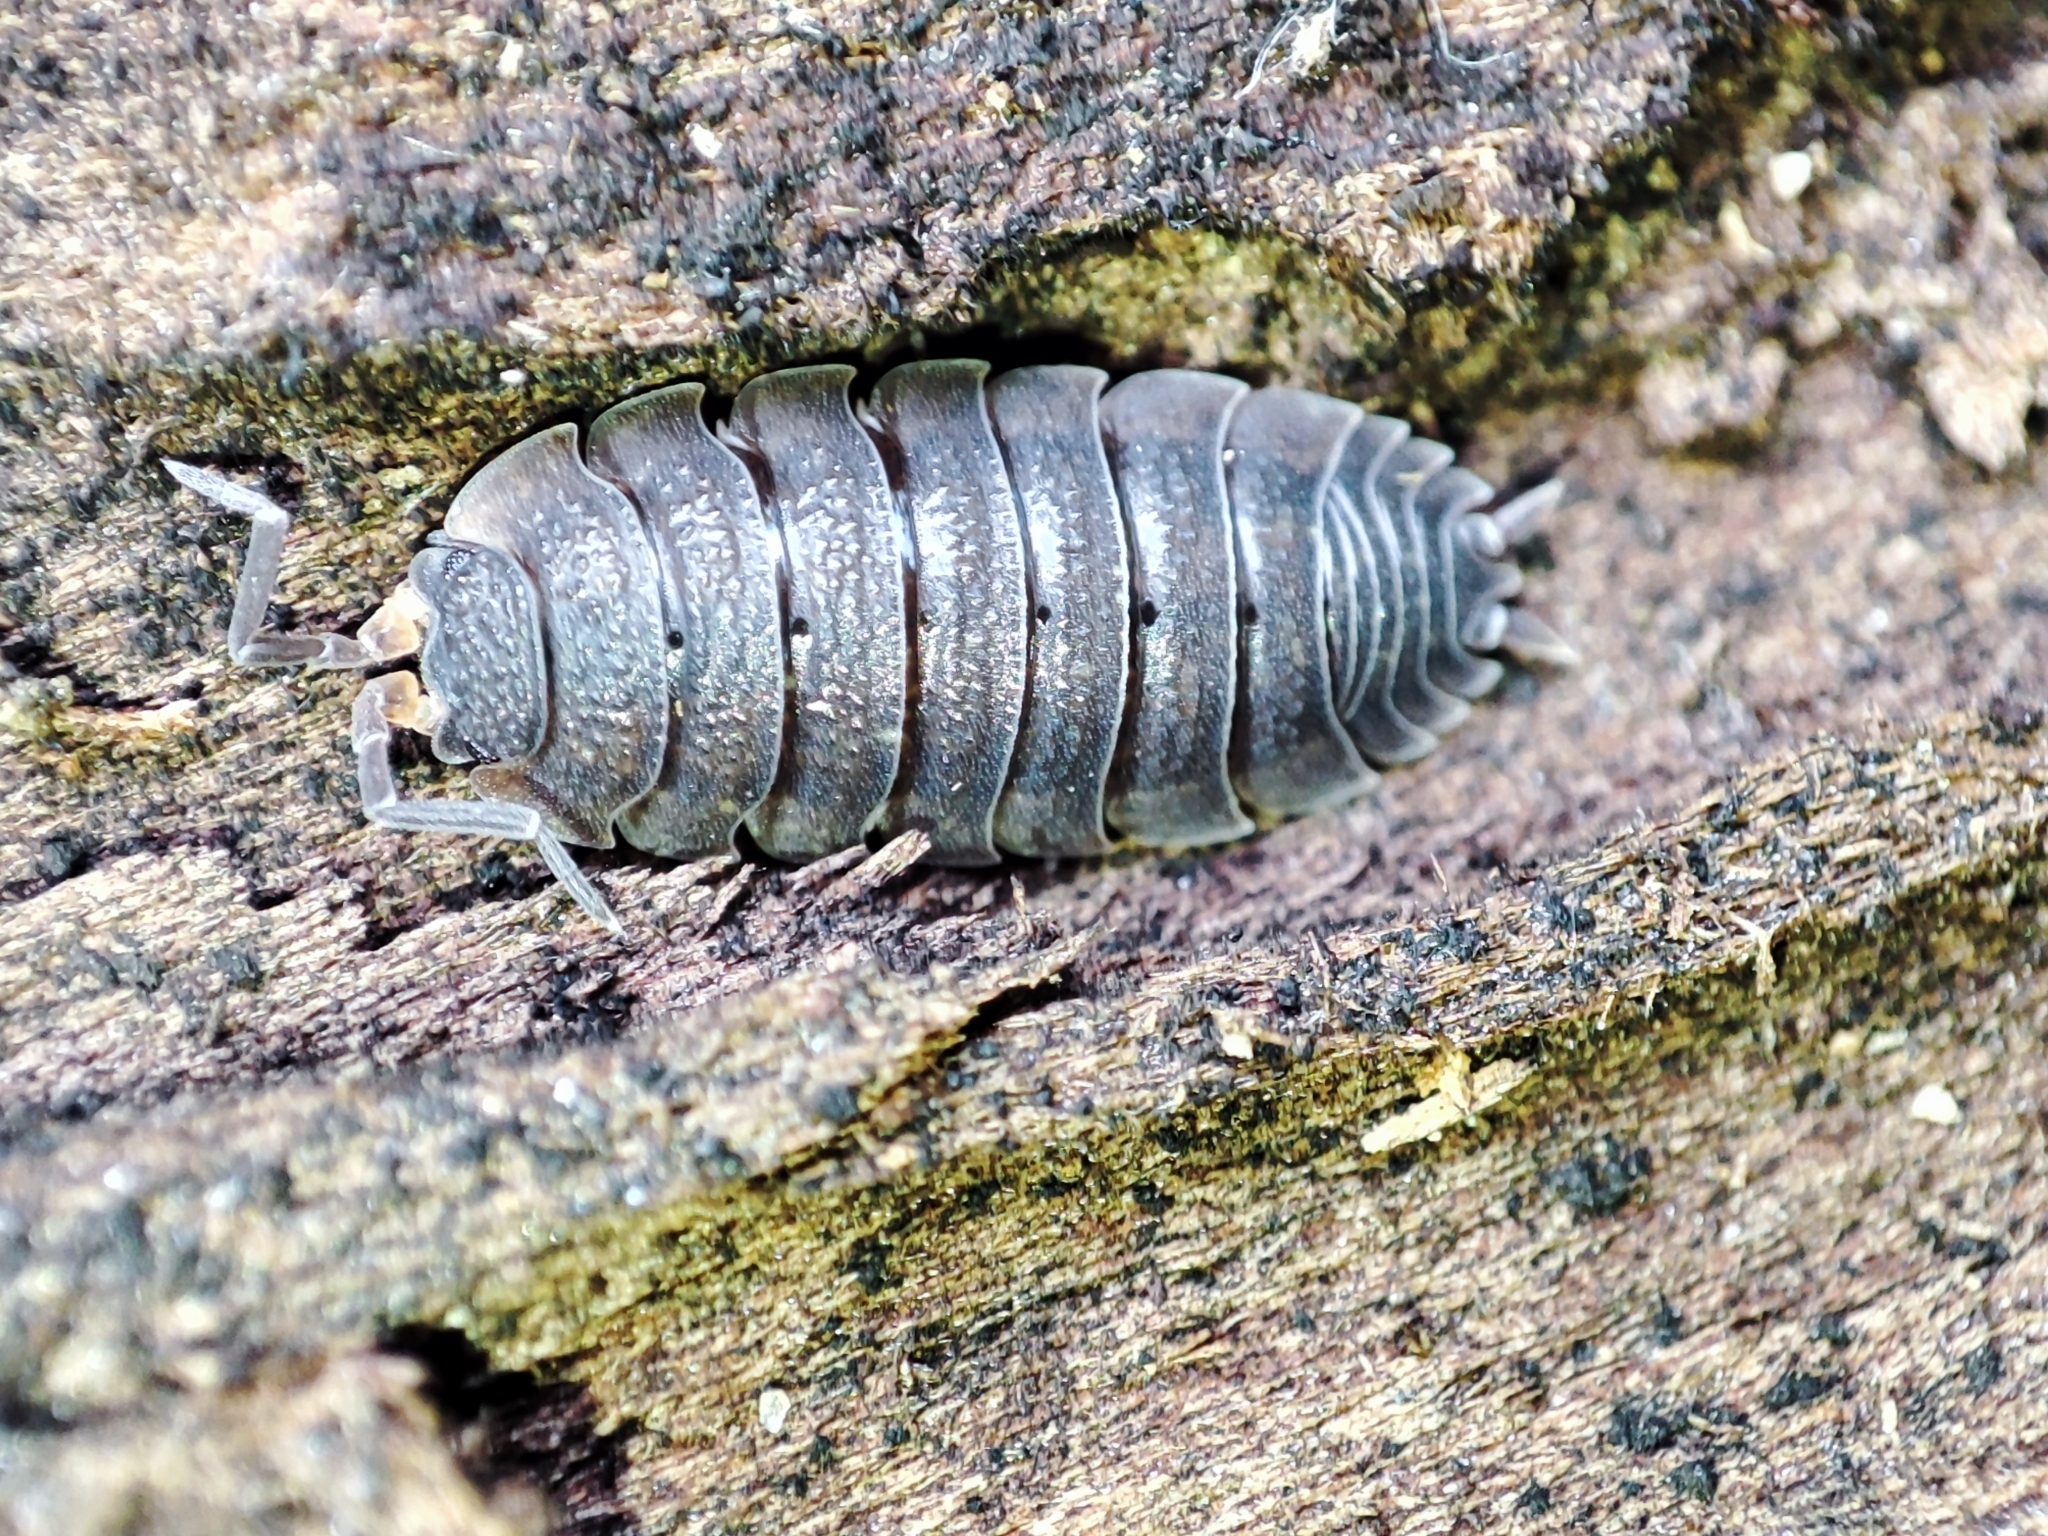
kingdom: Animalia
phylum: Arthropoda
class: Malacostraca
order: Isopoda
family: Porcellionidae
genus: Porcellio
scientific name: Porcellio scaber
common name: Common rough woodlouse
